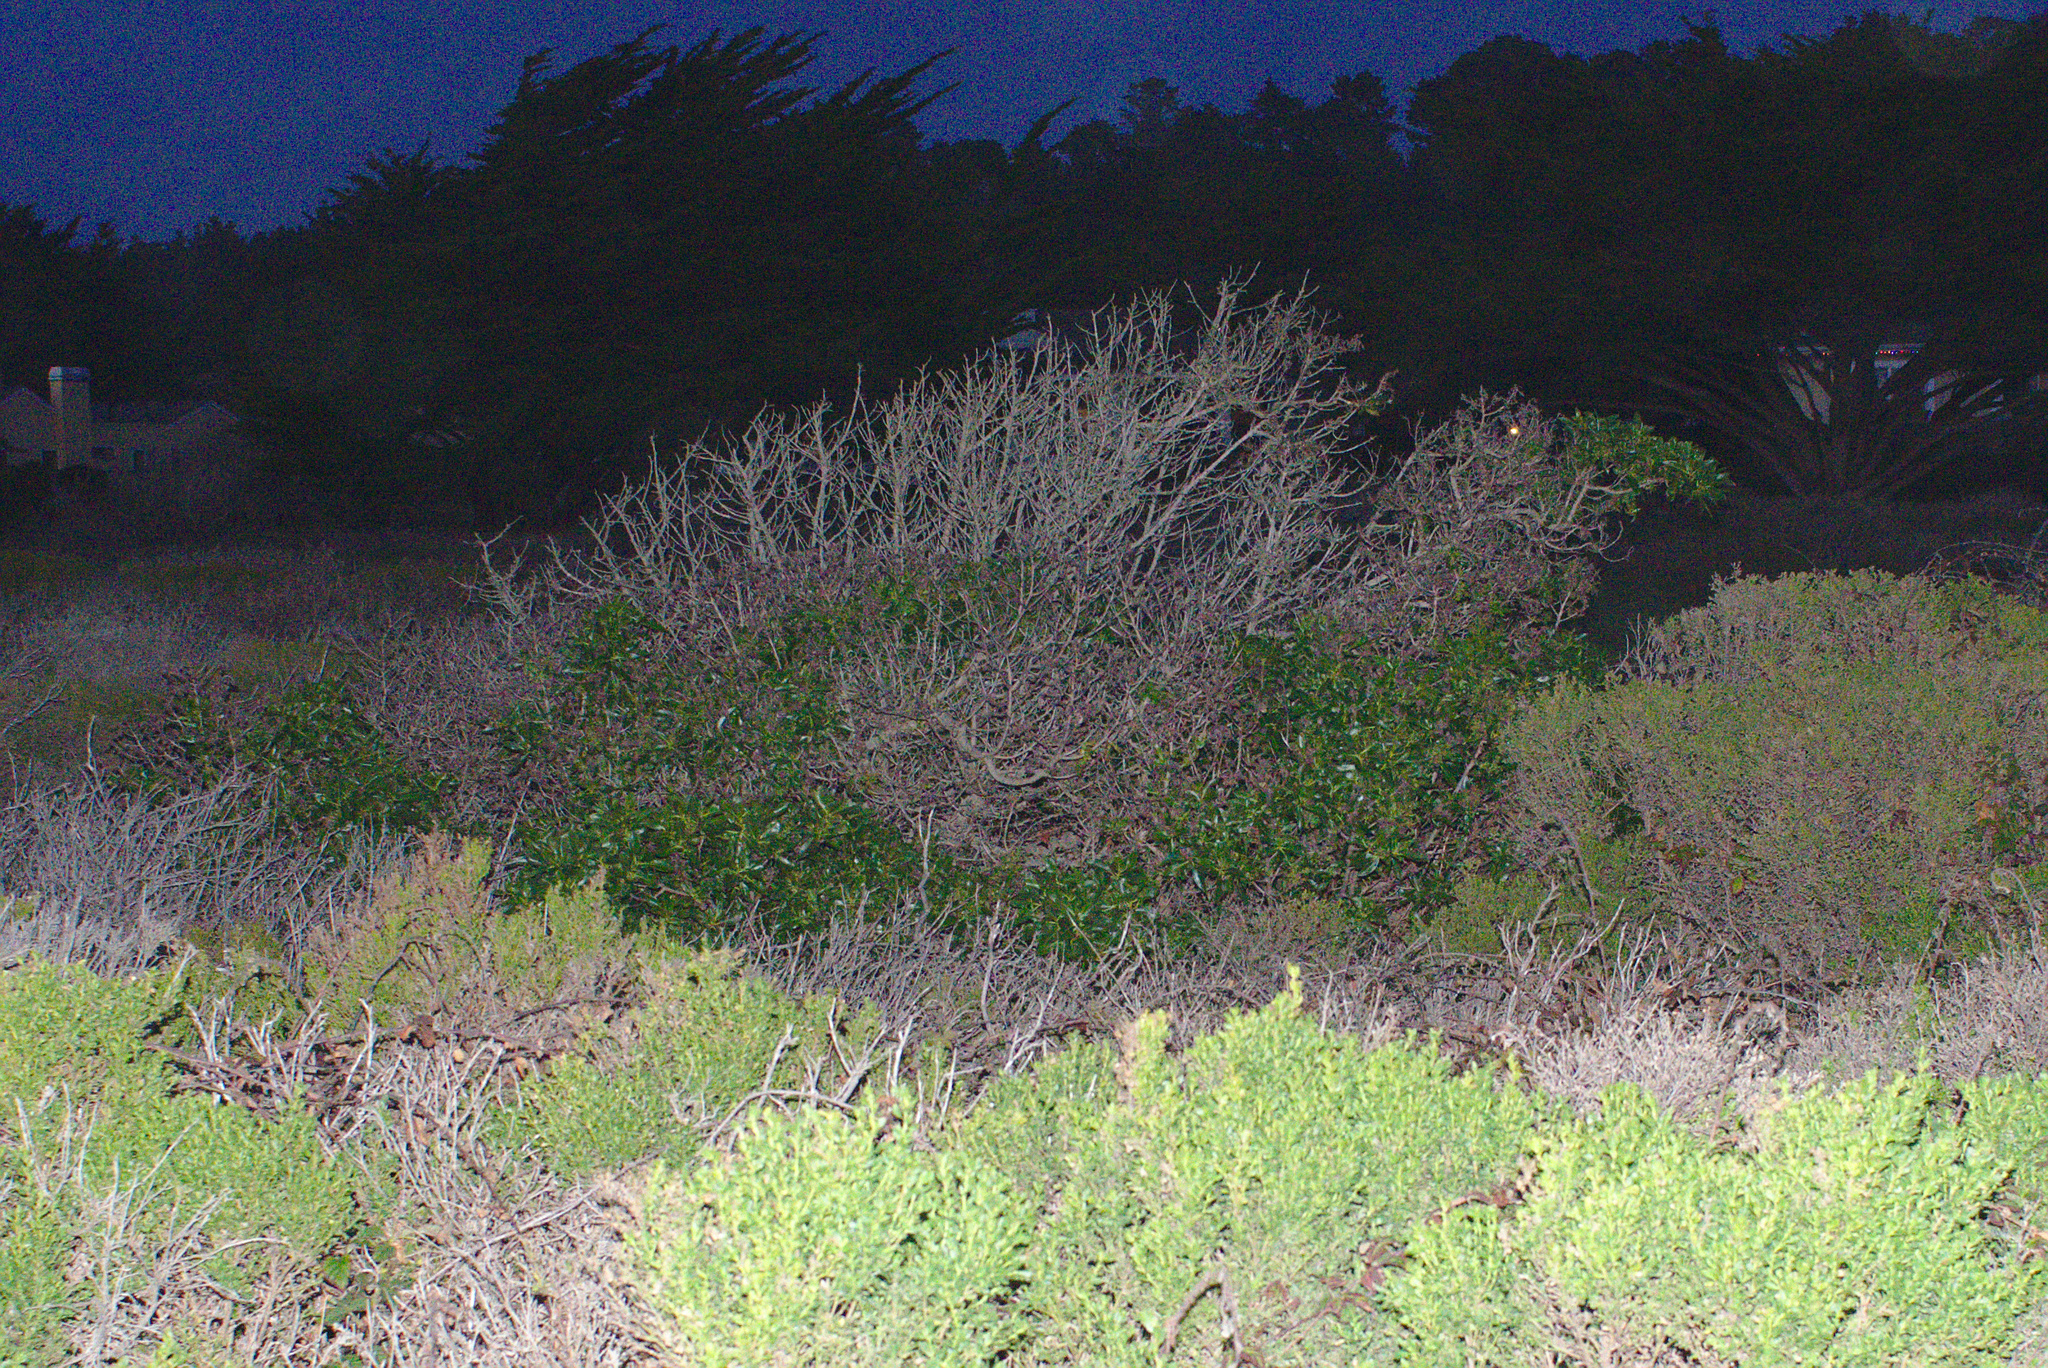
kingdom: Plantae
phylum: Tracheophyta
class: Magnoliopsida
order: Lamiales
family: Scrophulariaceae
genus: Myoporum
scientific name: Myoporum laetum
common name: Ngaio tree
